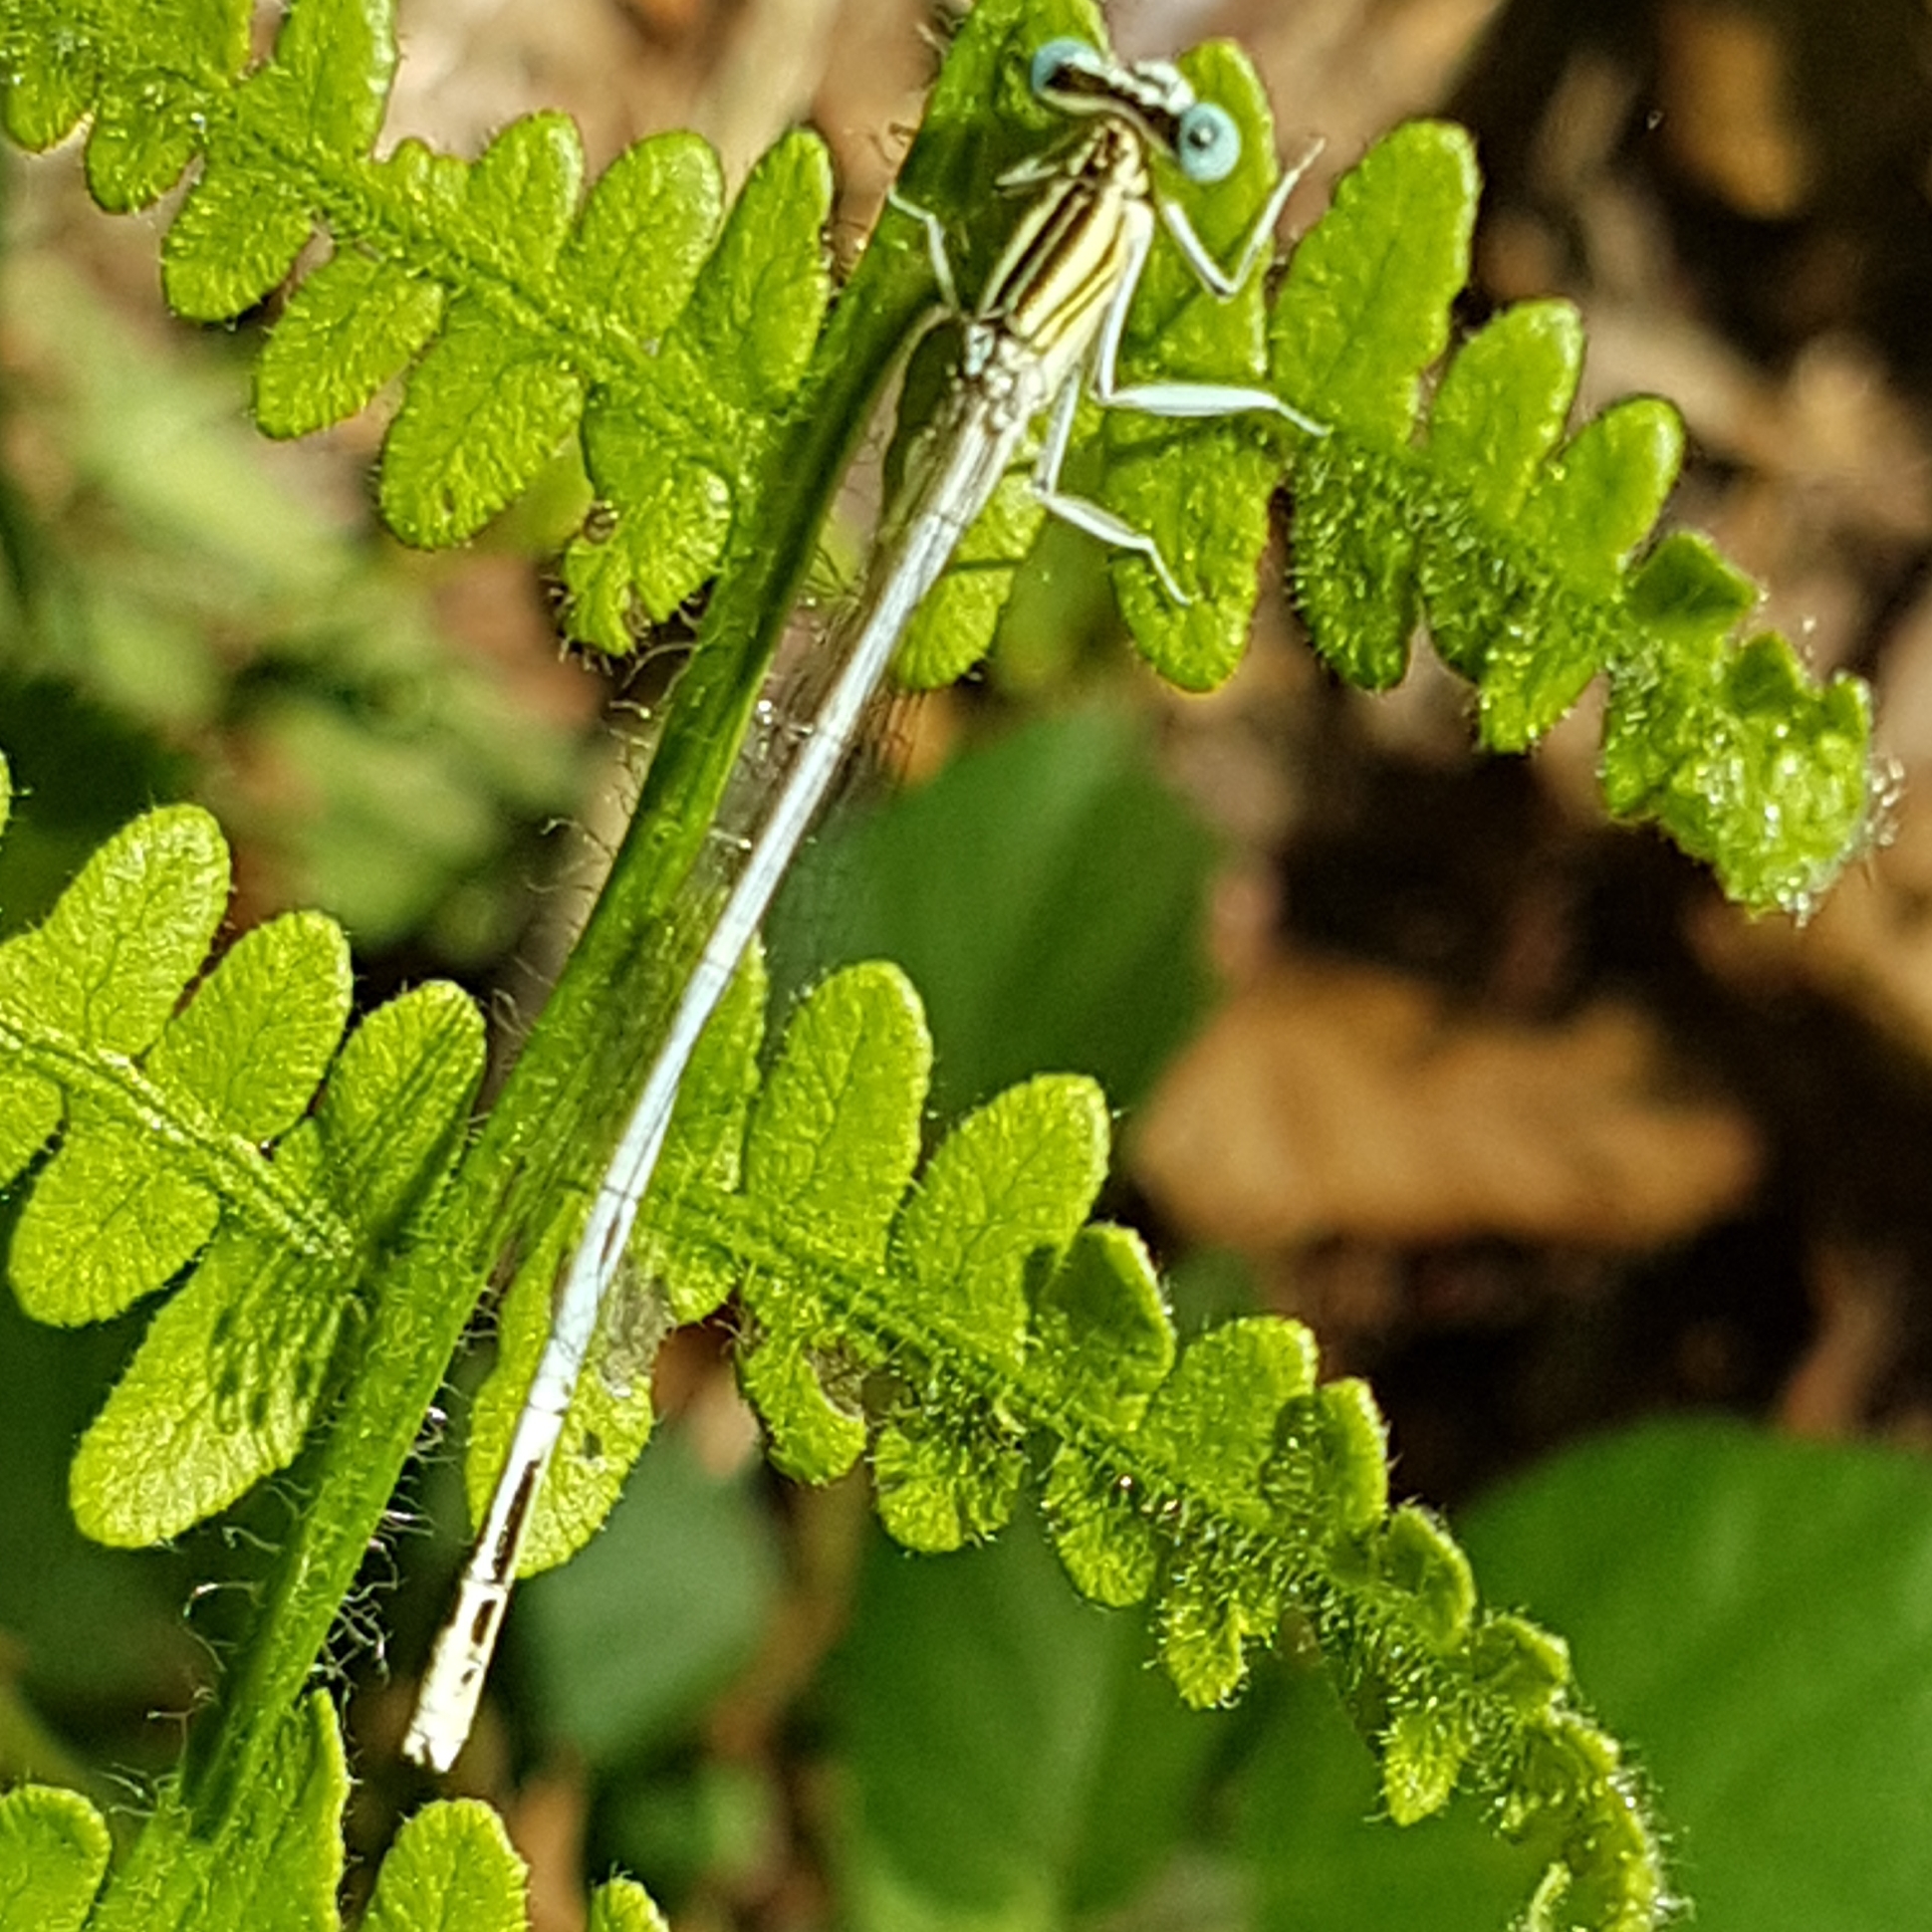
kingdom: Animalia
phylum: Arthropoda
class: Insecta
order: Odonata
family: Platycnemididae
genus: Platycnemis
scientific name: Platycnemis latipes
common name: White featherleg
